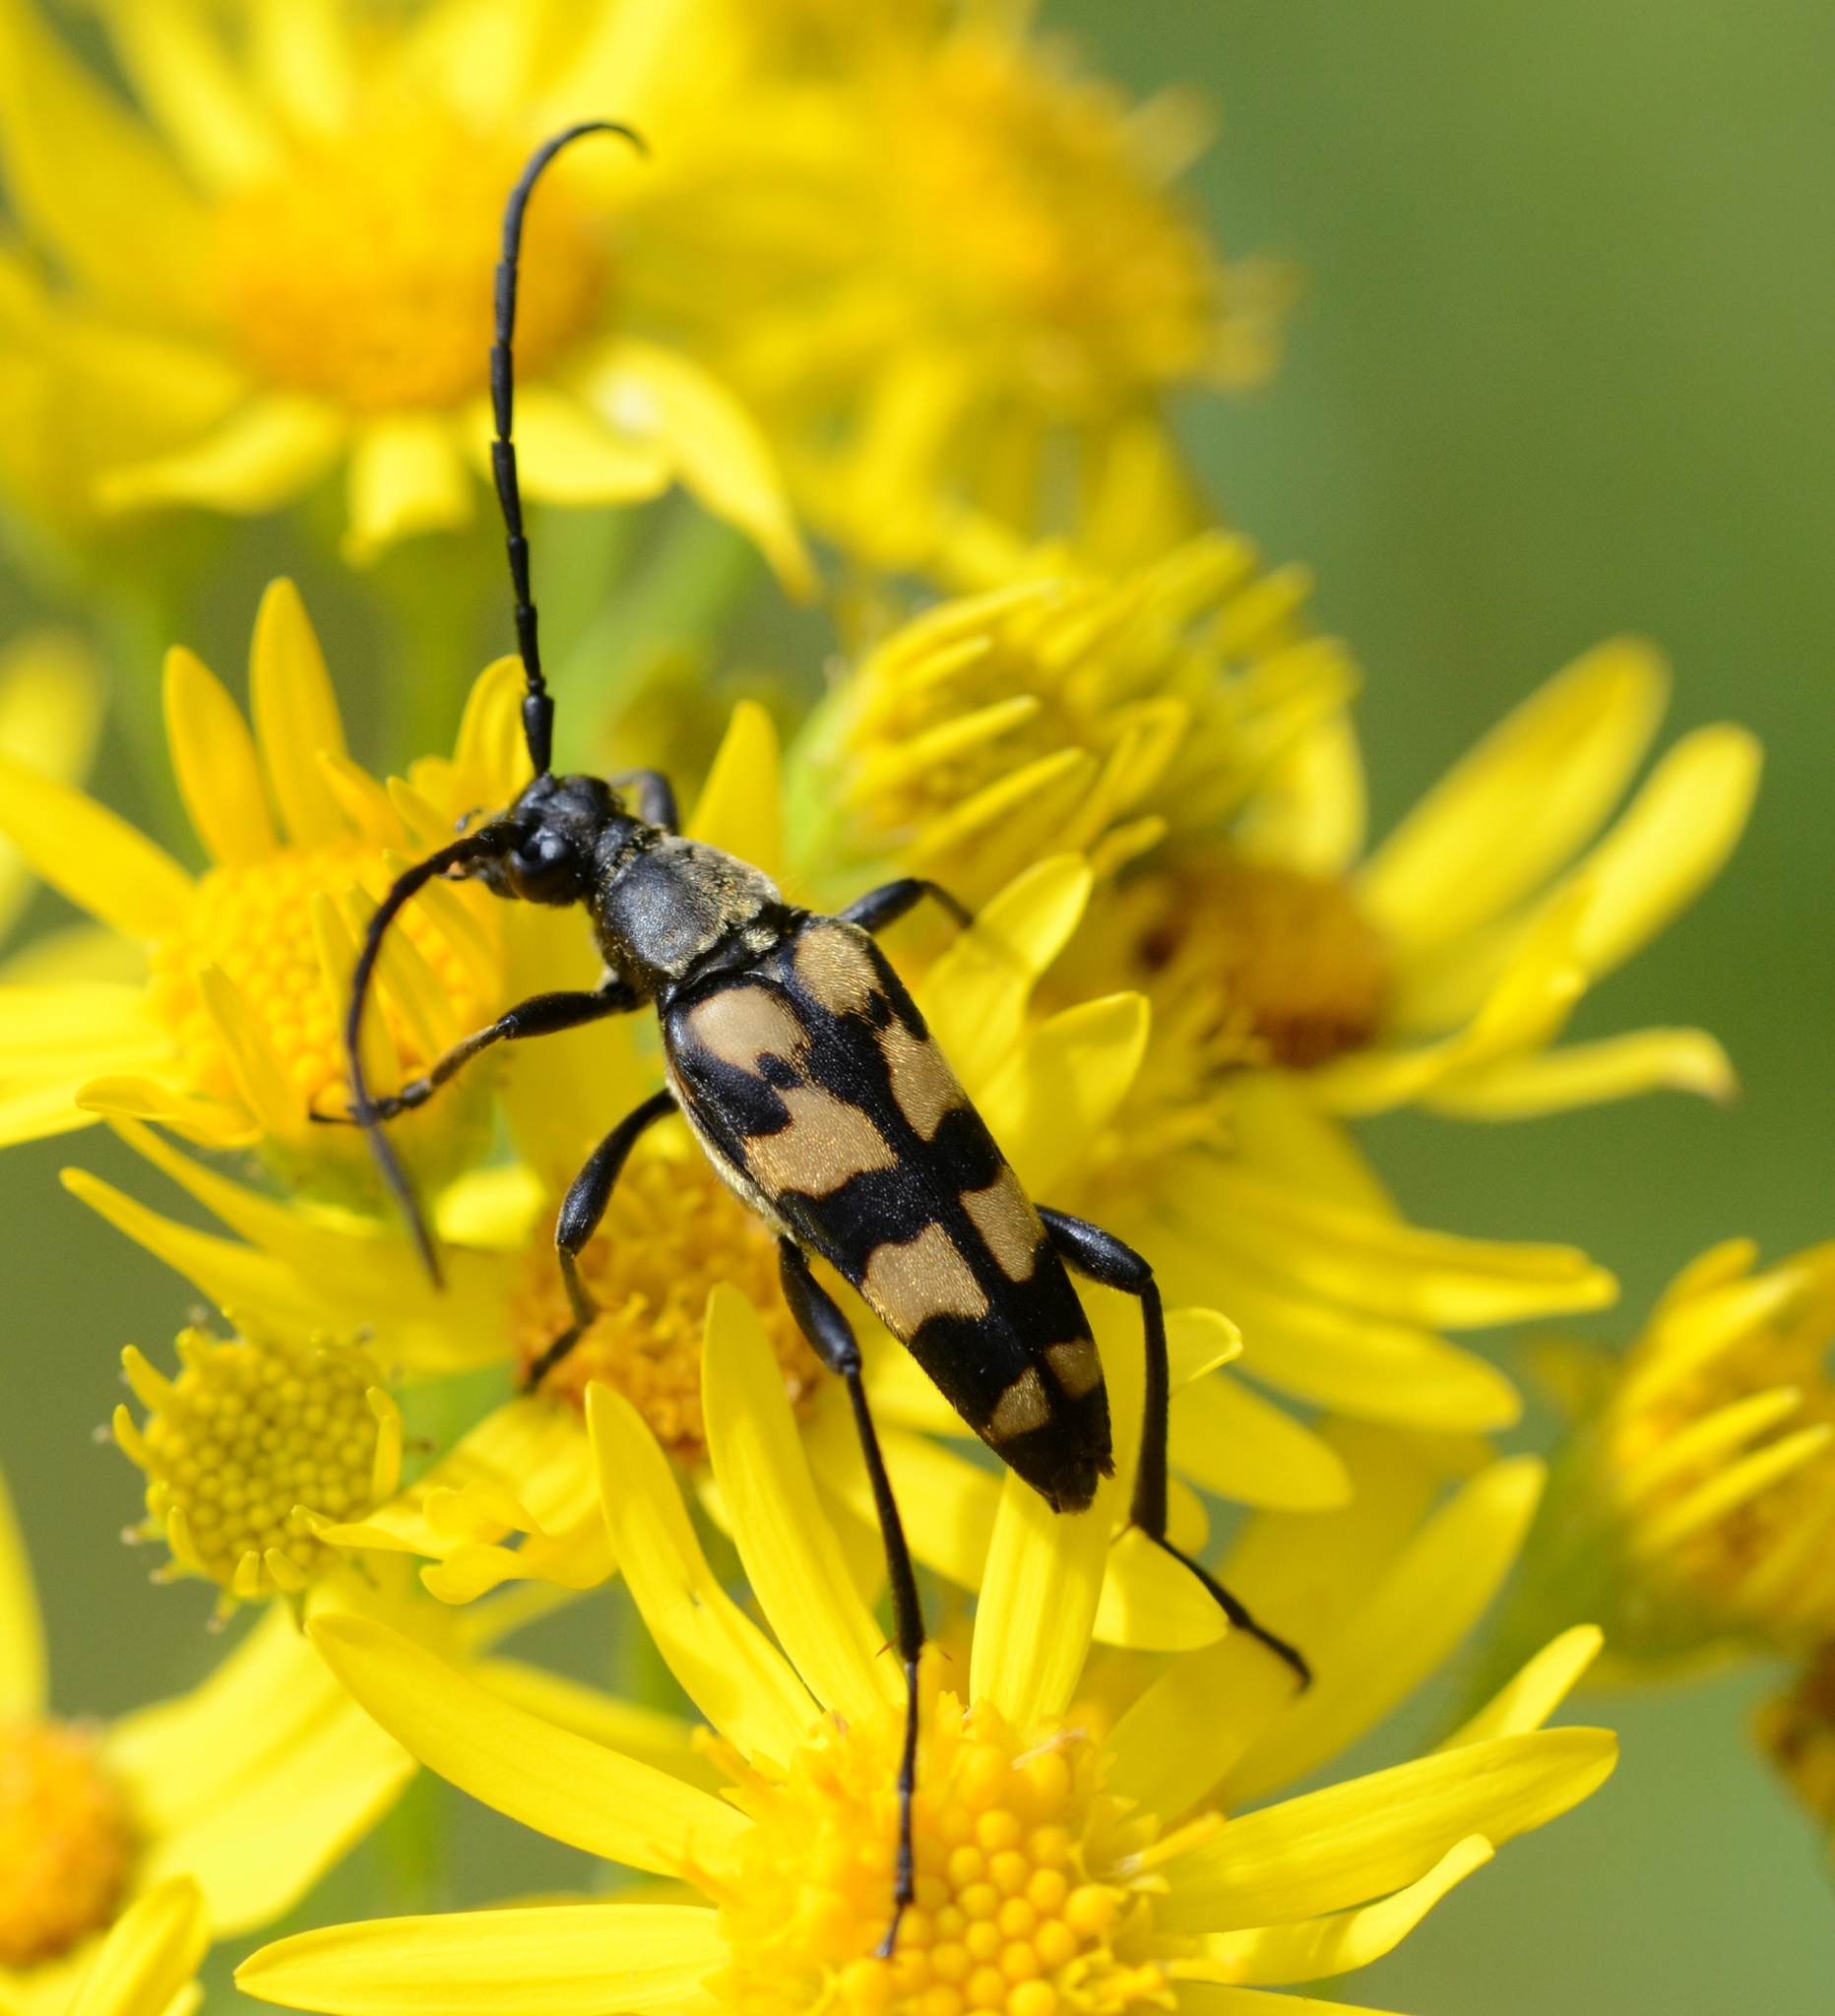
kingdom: Animalia
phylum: Arthropoda
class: Insecta
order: Coleoptera
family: Cerambycidae
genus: Leptura
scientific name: Leptura quadrifasciata
